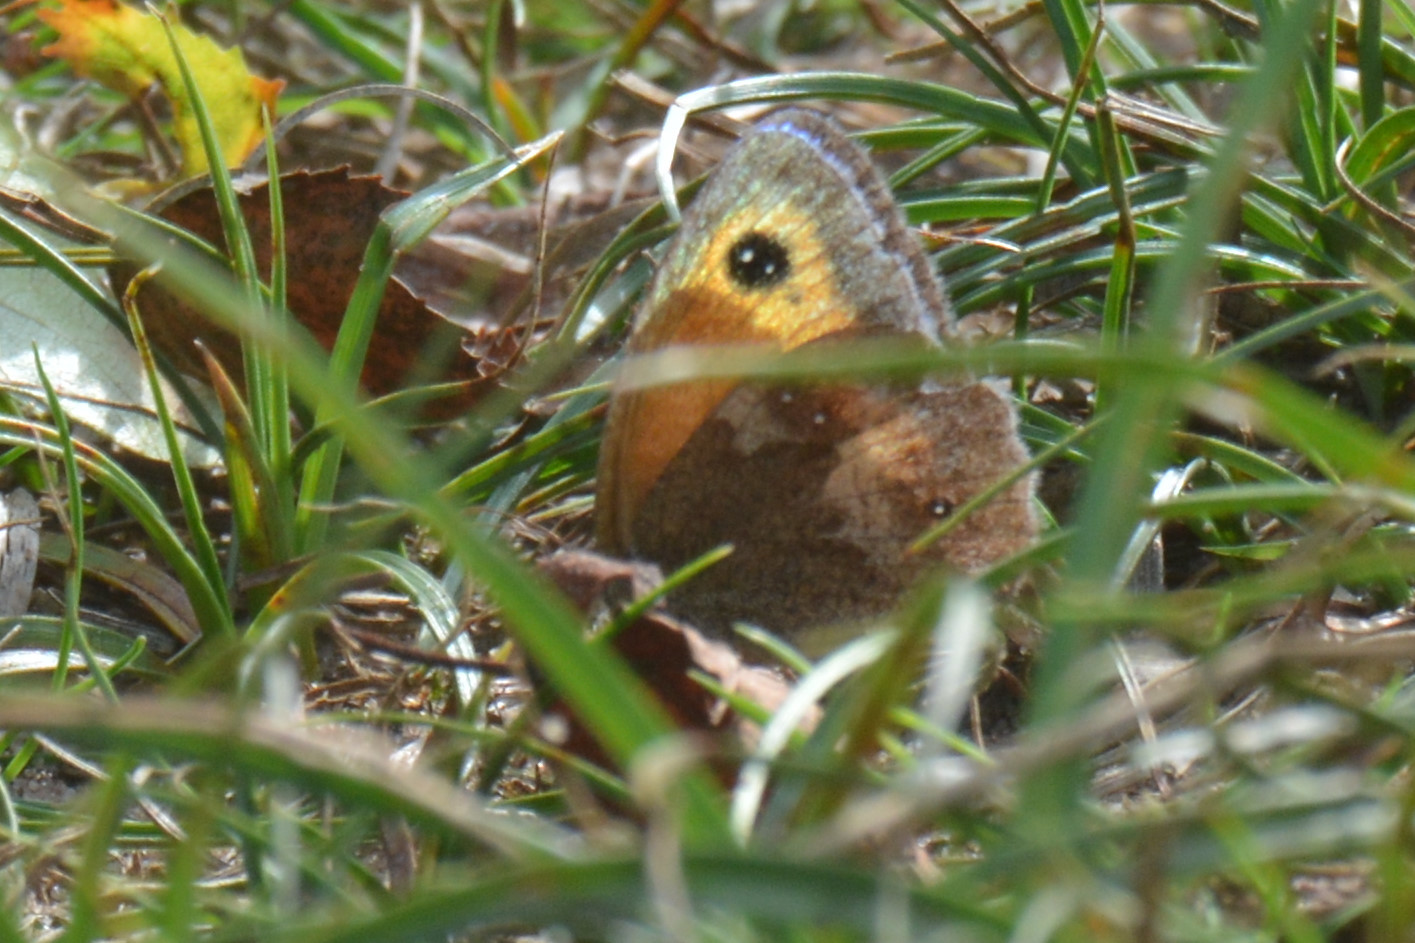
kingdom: Animalia
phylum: Arthropoda
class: Insecta
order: Lepidoptera
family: Nymphalidae
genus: Pyronia
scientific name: Pyronia tithonus
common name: Gatekeeper
